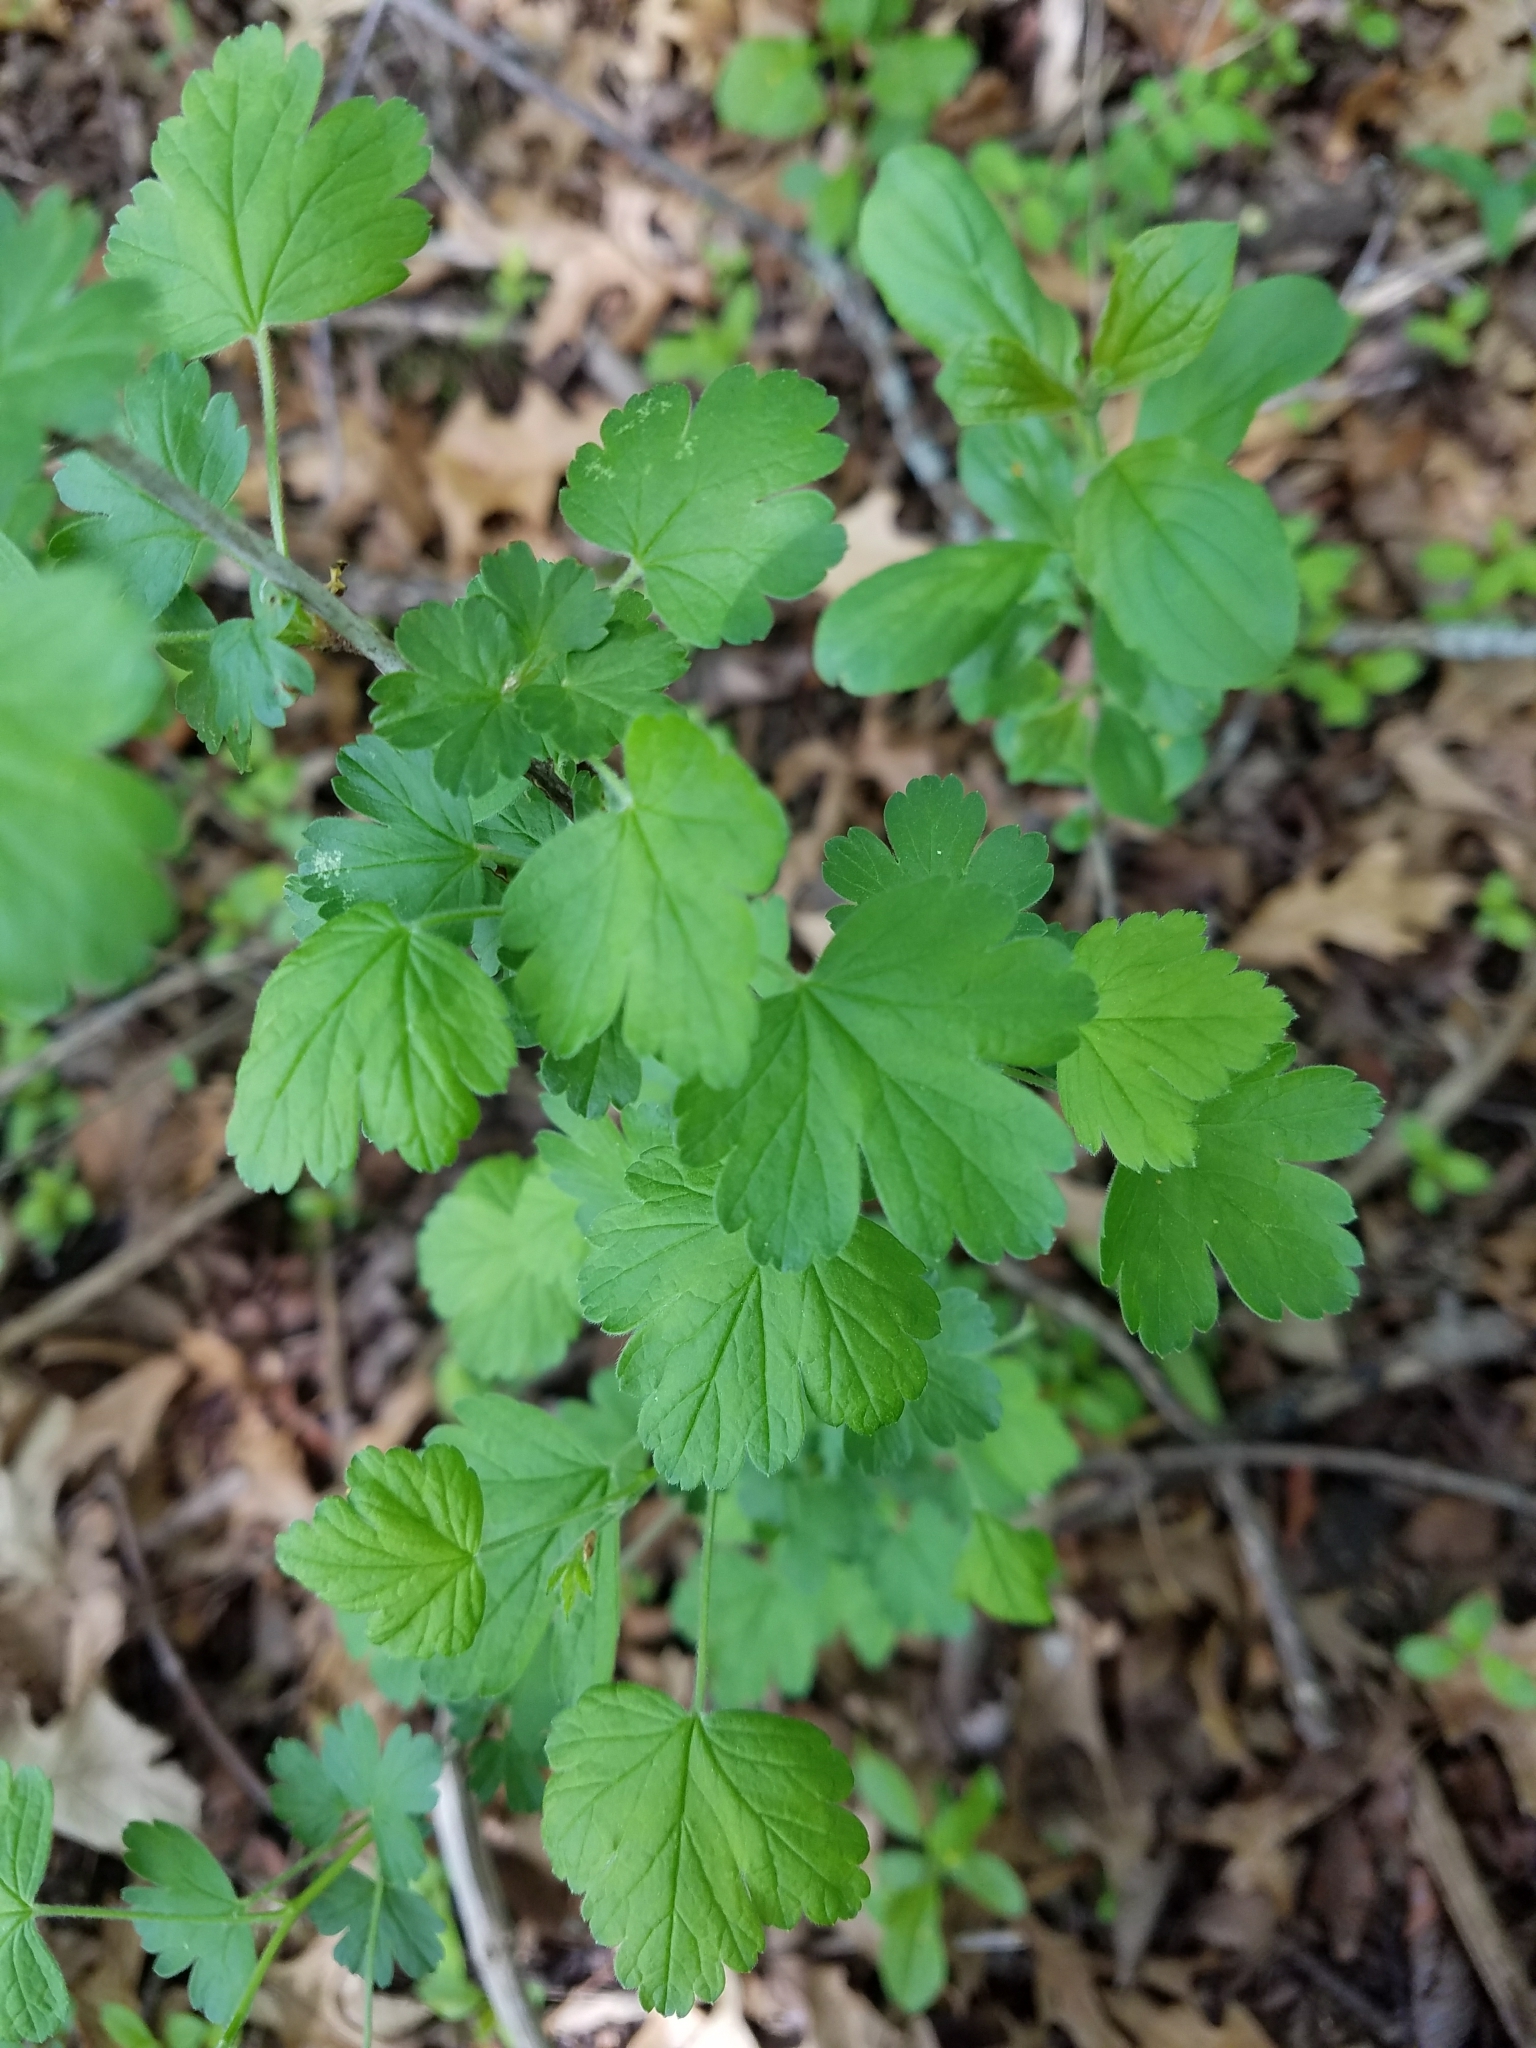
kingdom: Plantae
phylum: Tracheophyta
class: Magnoliopsida
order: Saxifragales
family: Grossulariaceae
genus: Ribes
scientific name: Ribes missouriense
